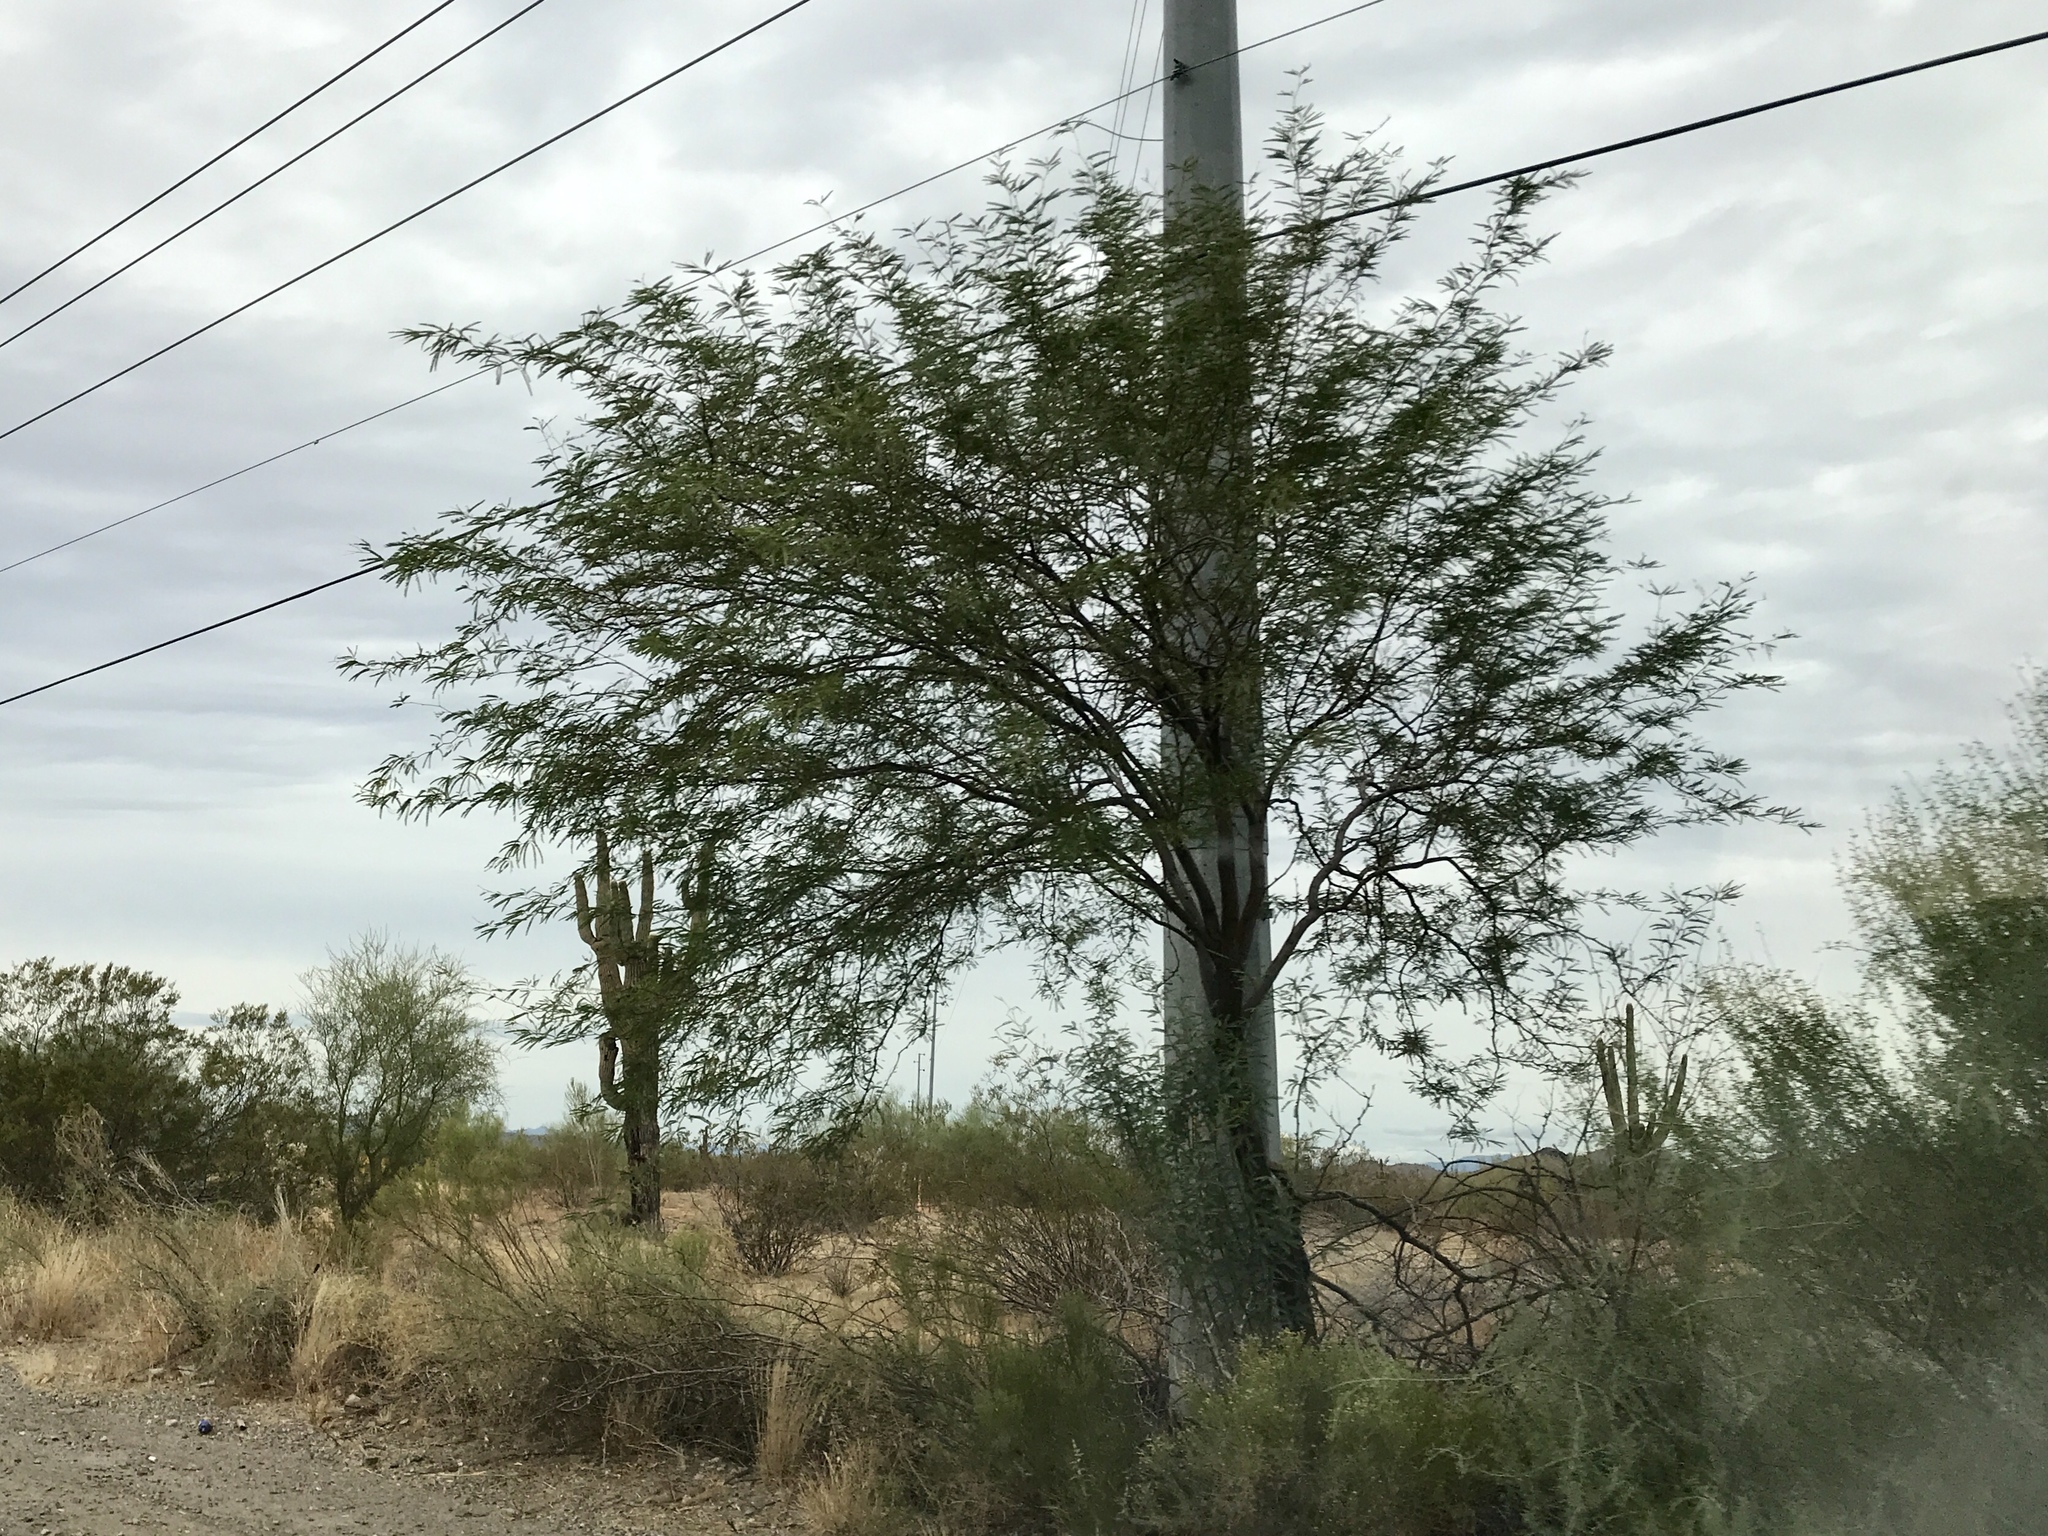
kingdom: Plantae
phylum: Tracheophyta
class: Magnoliopsida
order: Fabales
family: Fabaceae
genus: Olneya
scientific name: Olneya tesota
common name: Desert ironwood
